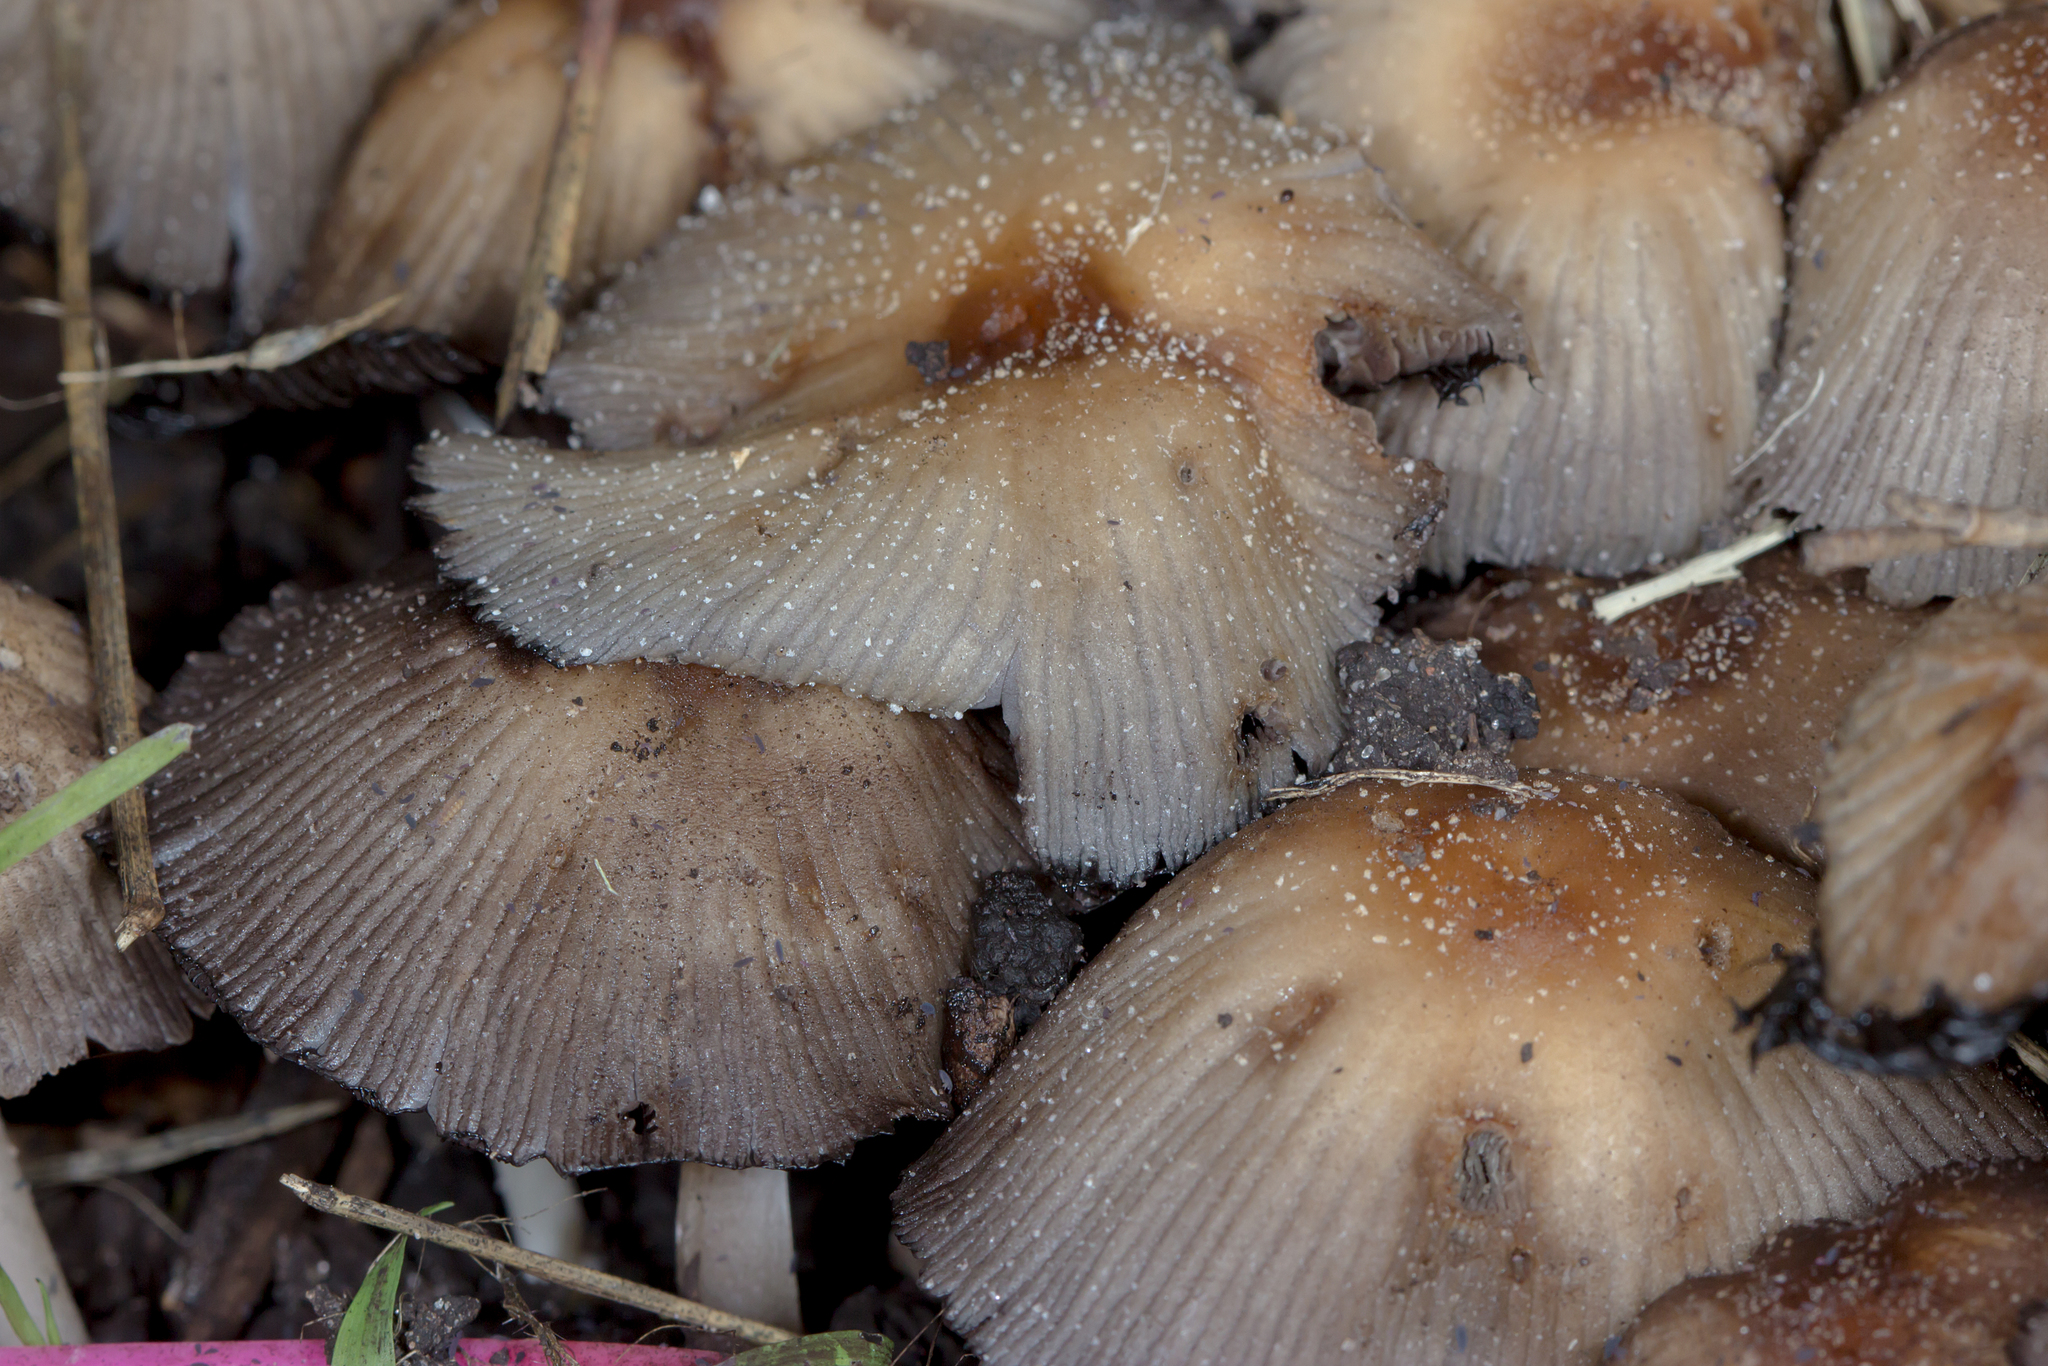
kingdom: Fungi
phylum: Basidiomycota
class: Agaricomycetes
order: Agaricales
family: Psathyrellaceae
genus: Coprinellus
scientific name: Coprinellus micaceus
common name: Glistening ink-cap
